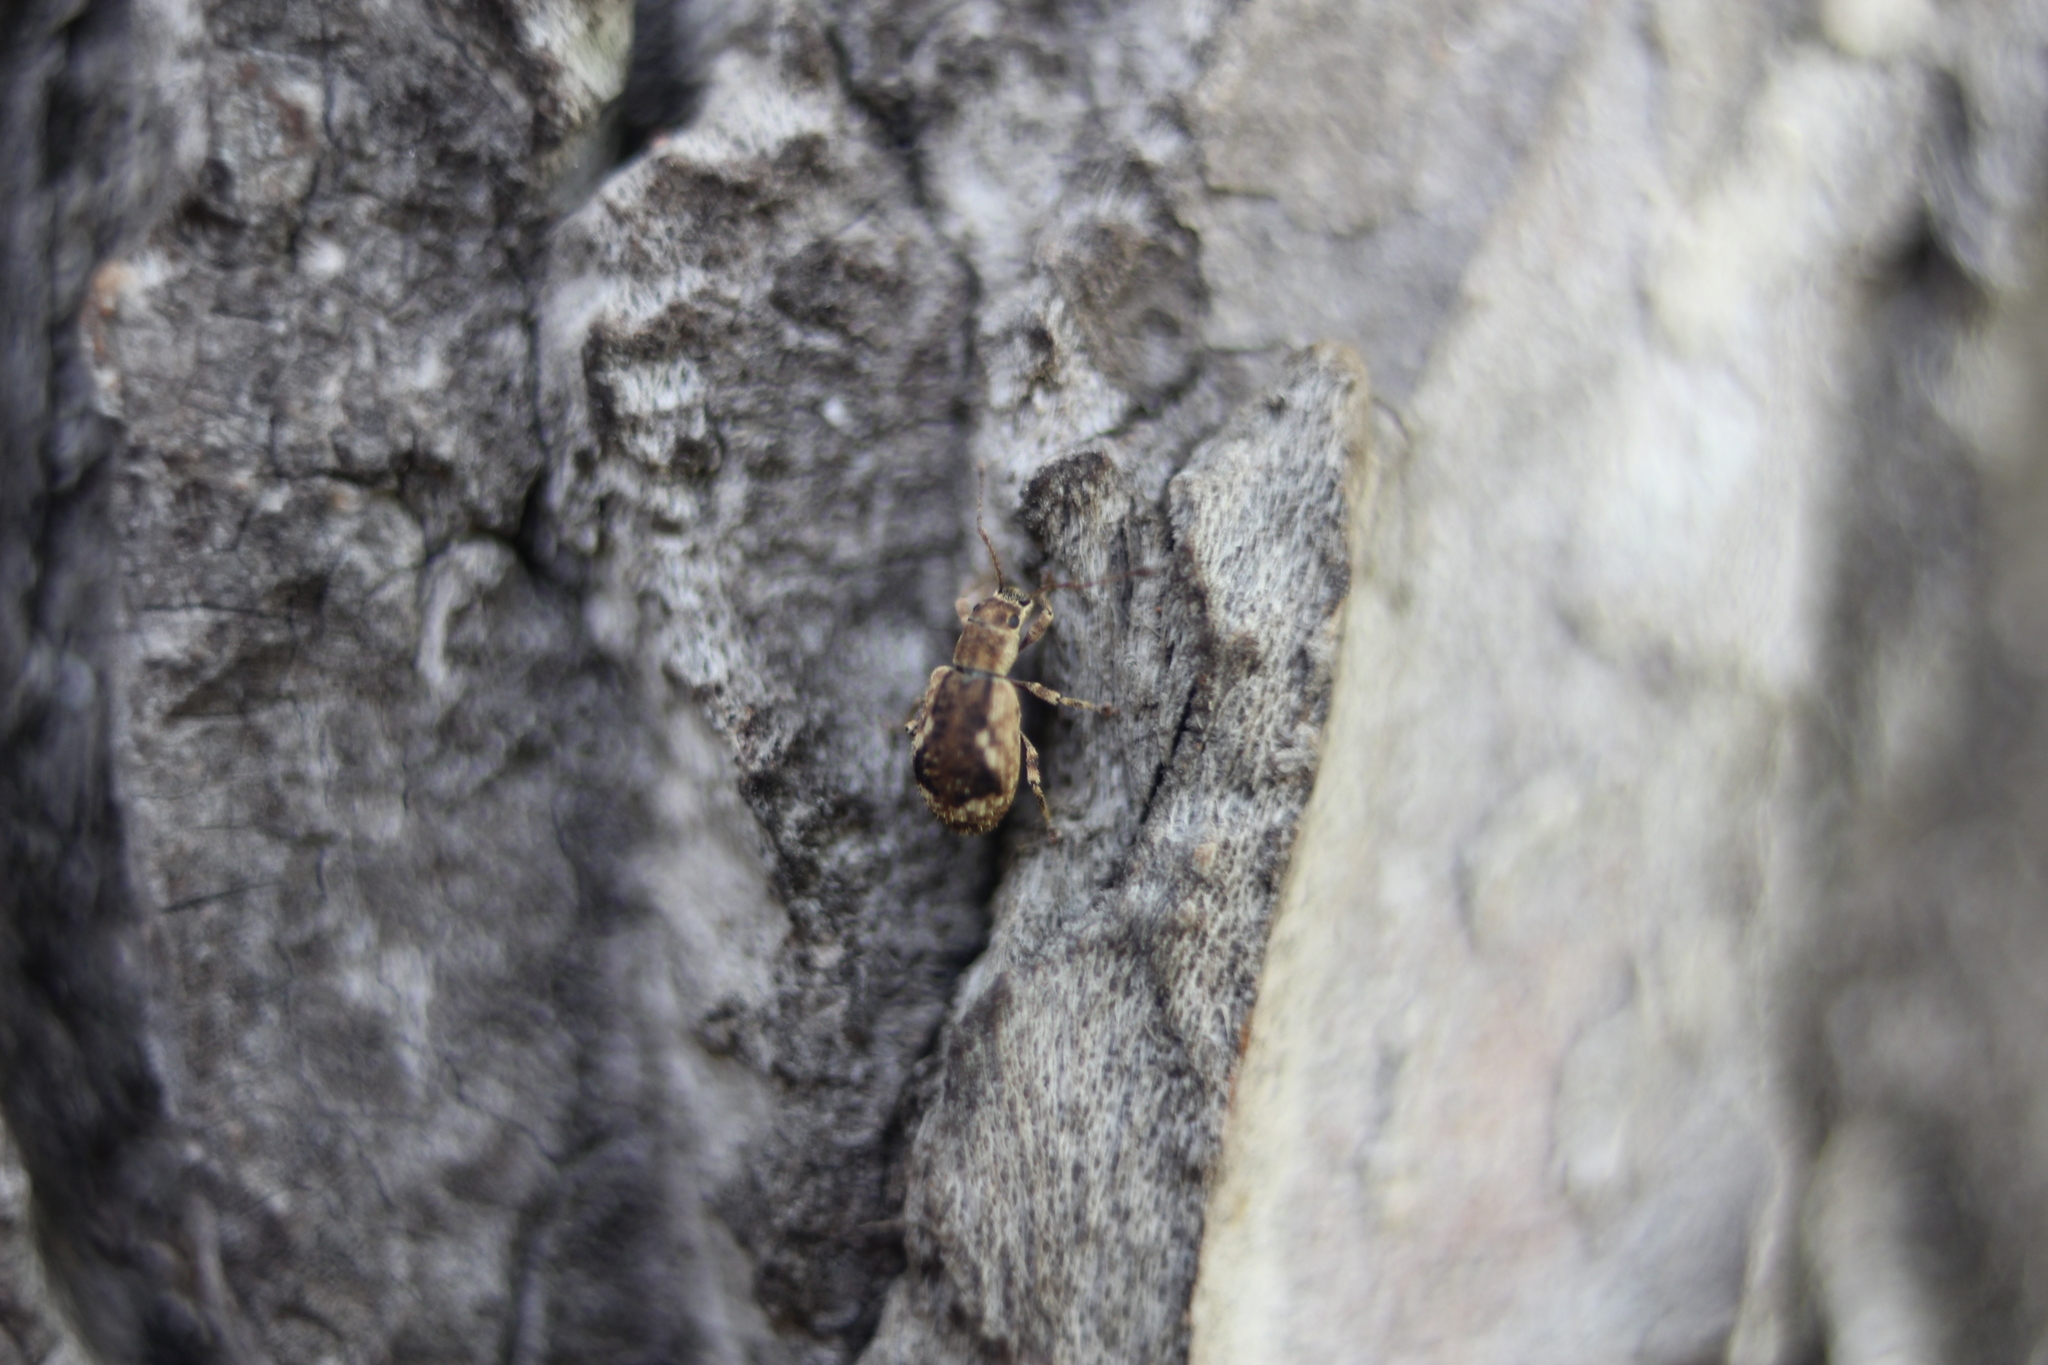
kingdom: Animalia
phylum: Arthropoda
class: Insecta
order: Coleoptera
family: Curculionidae
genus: Pseudoedophrys
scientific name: Pseudoedophrys hilleri
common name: Weevil
